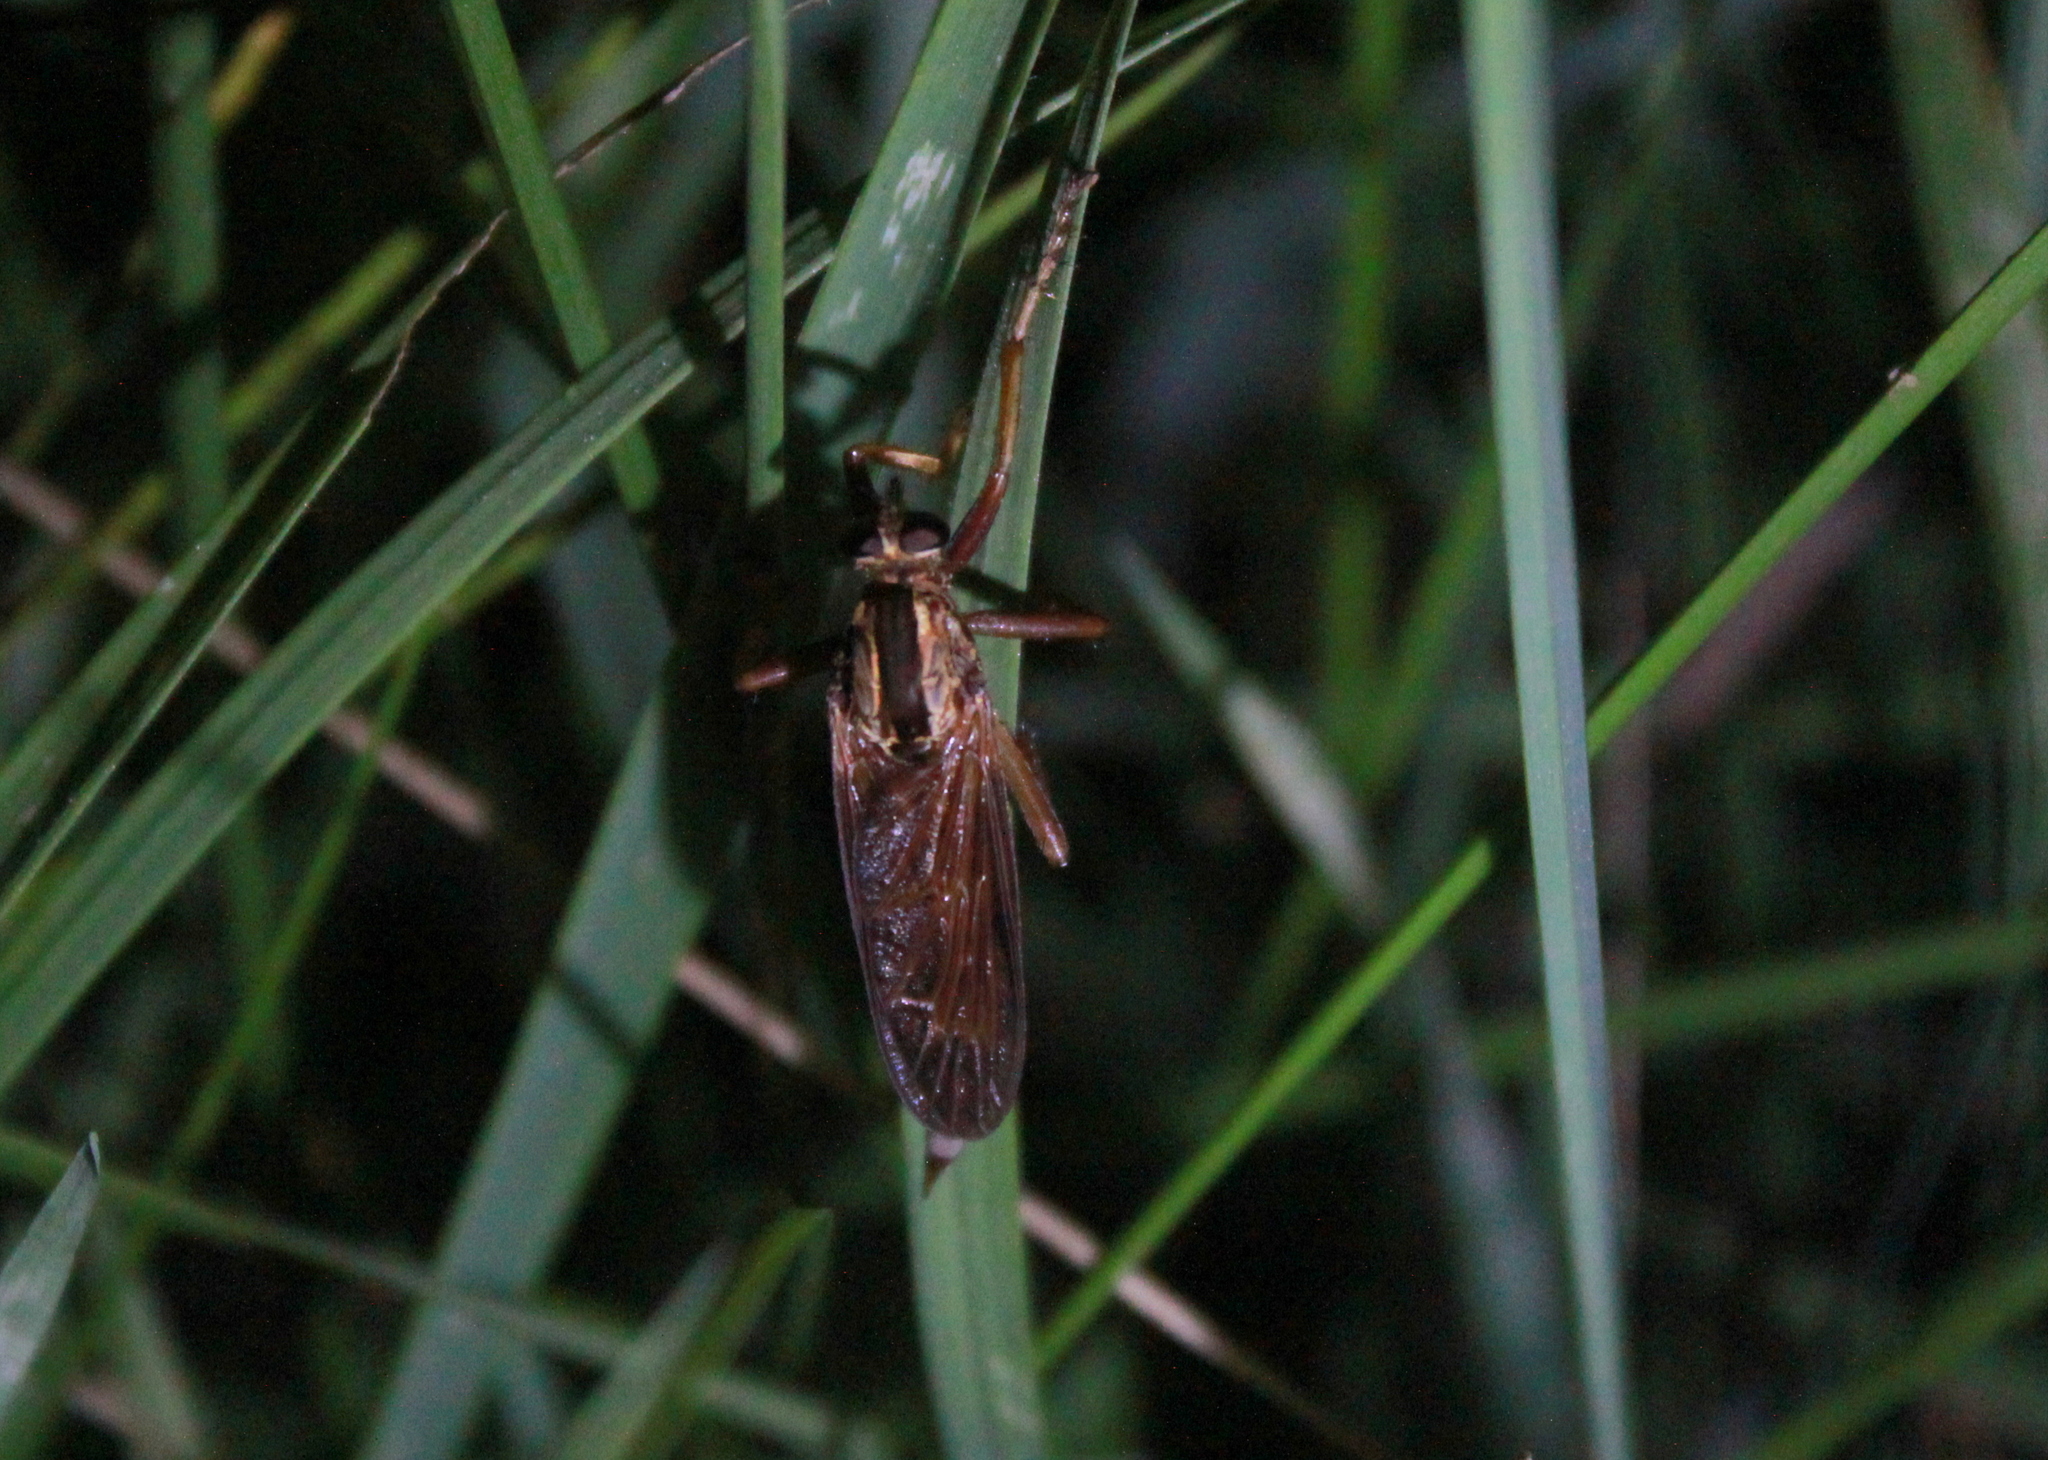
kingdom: Animalia
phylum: Arthropoda
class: Insecta
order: Diptera
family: Asilidae
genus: Asilus
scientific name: Asilus sericeus
